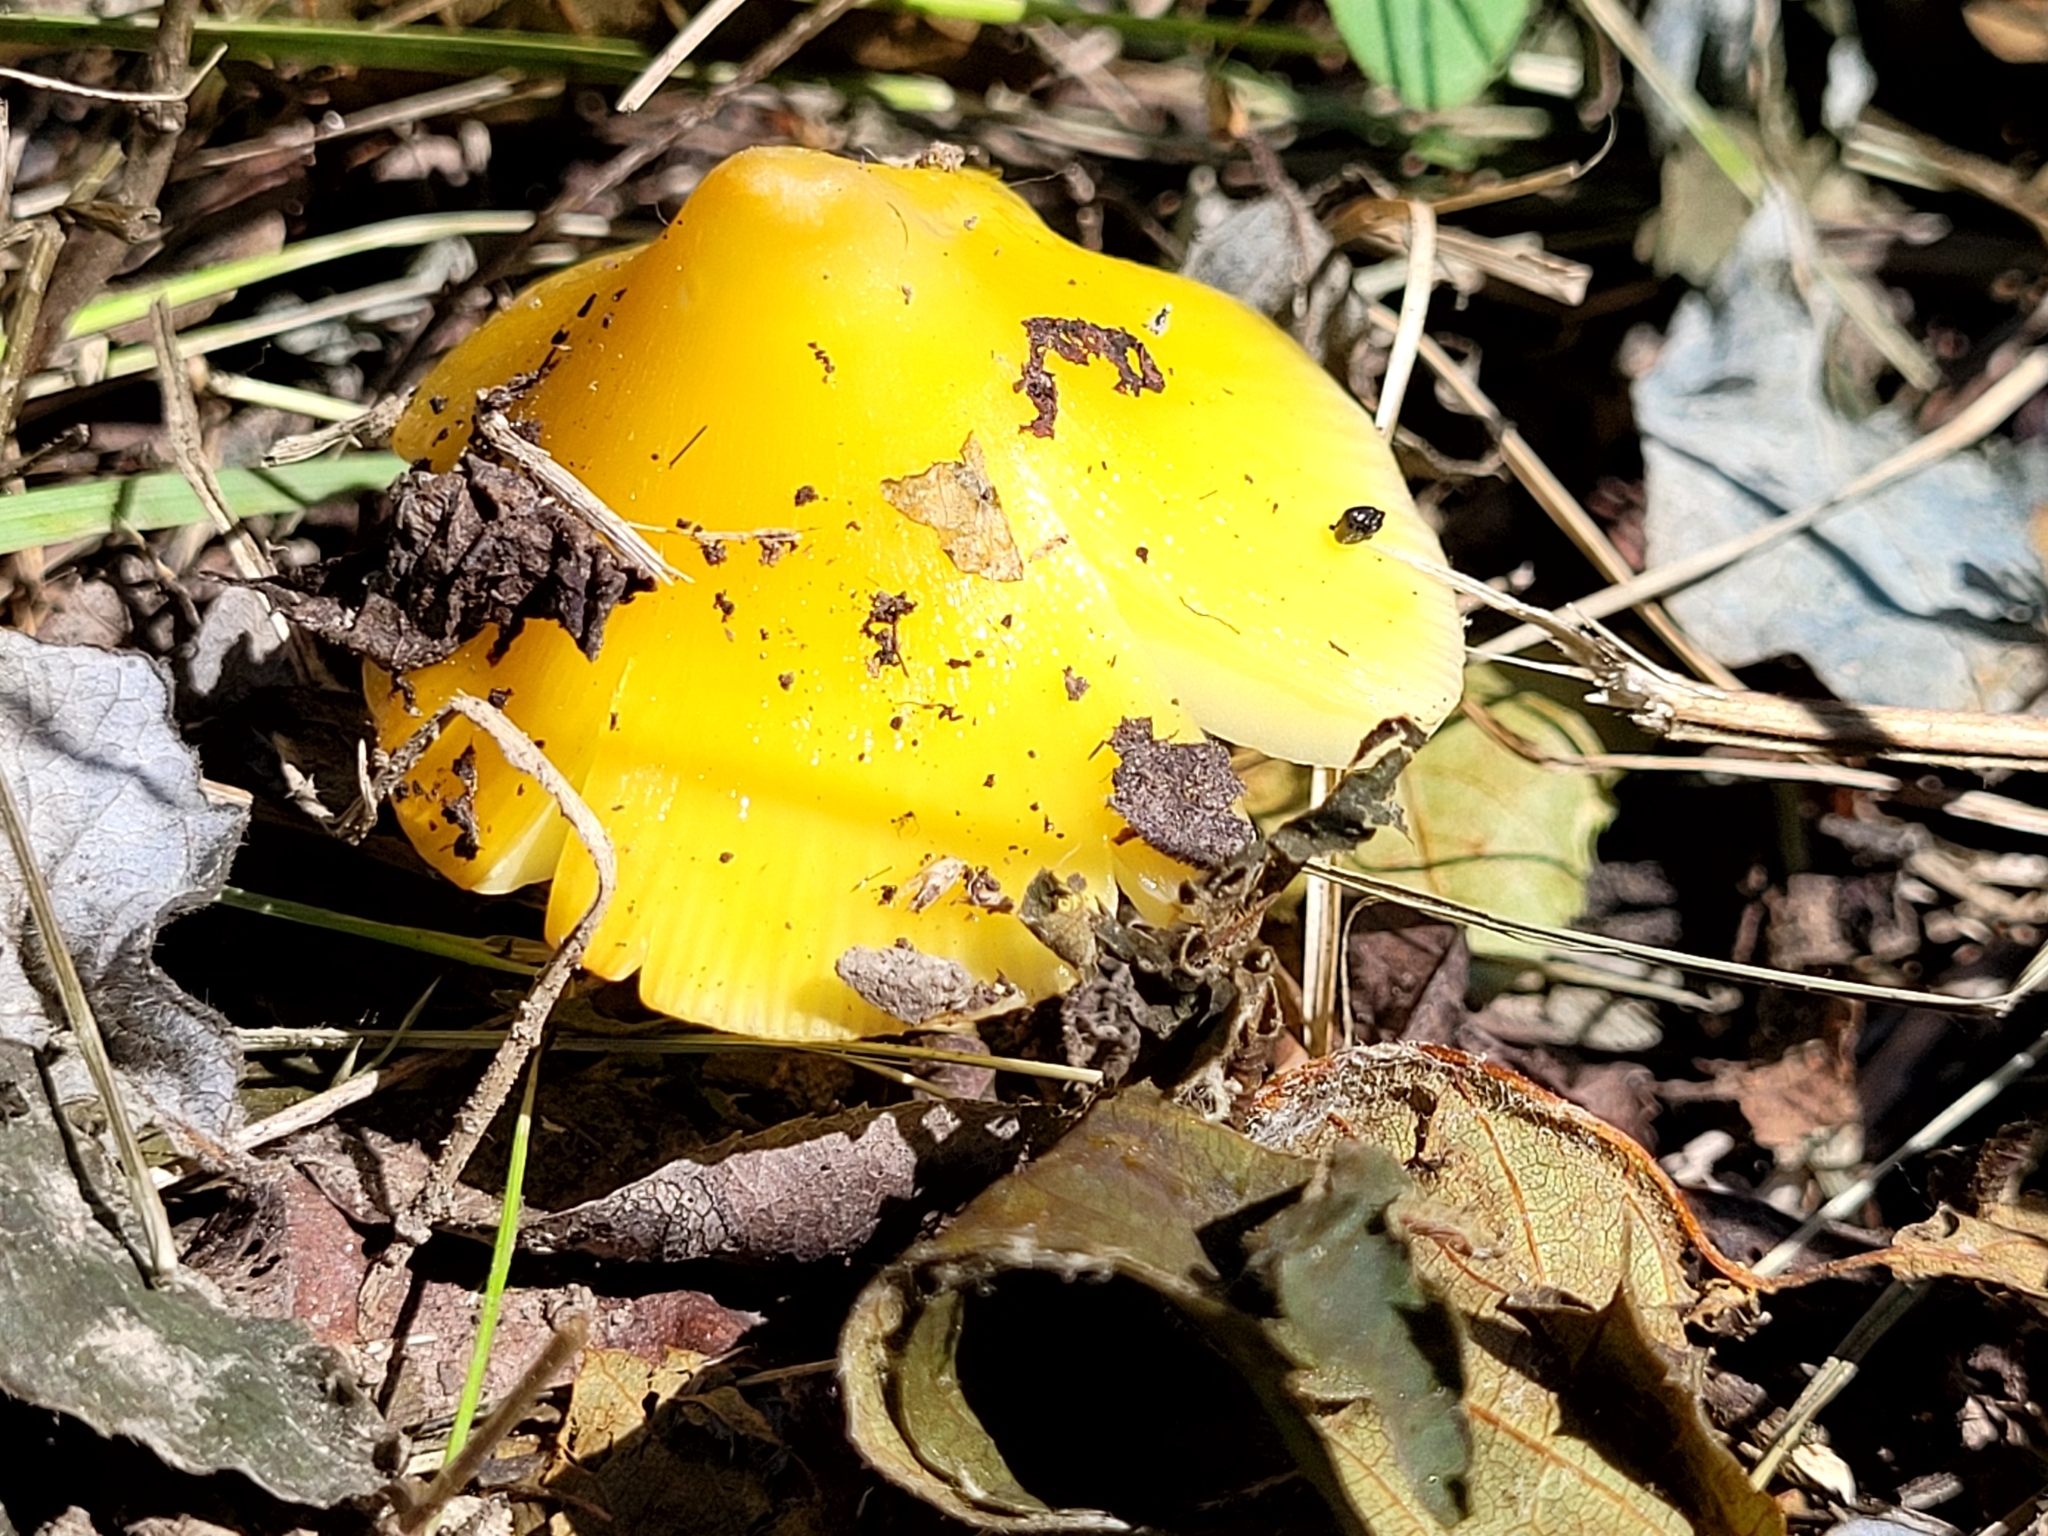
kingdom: Fungi
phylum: Basidiomycota
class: Agaricomycetes
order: Agaricales
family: Hygrophoraceae
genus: Hygrocybe
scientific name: Hygrocybe acutoconica
